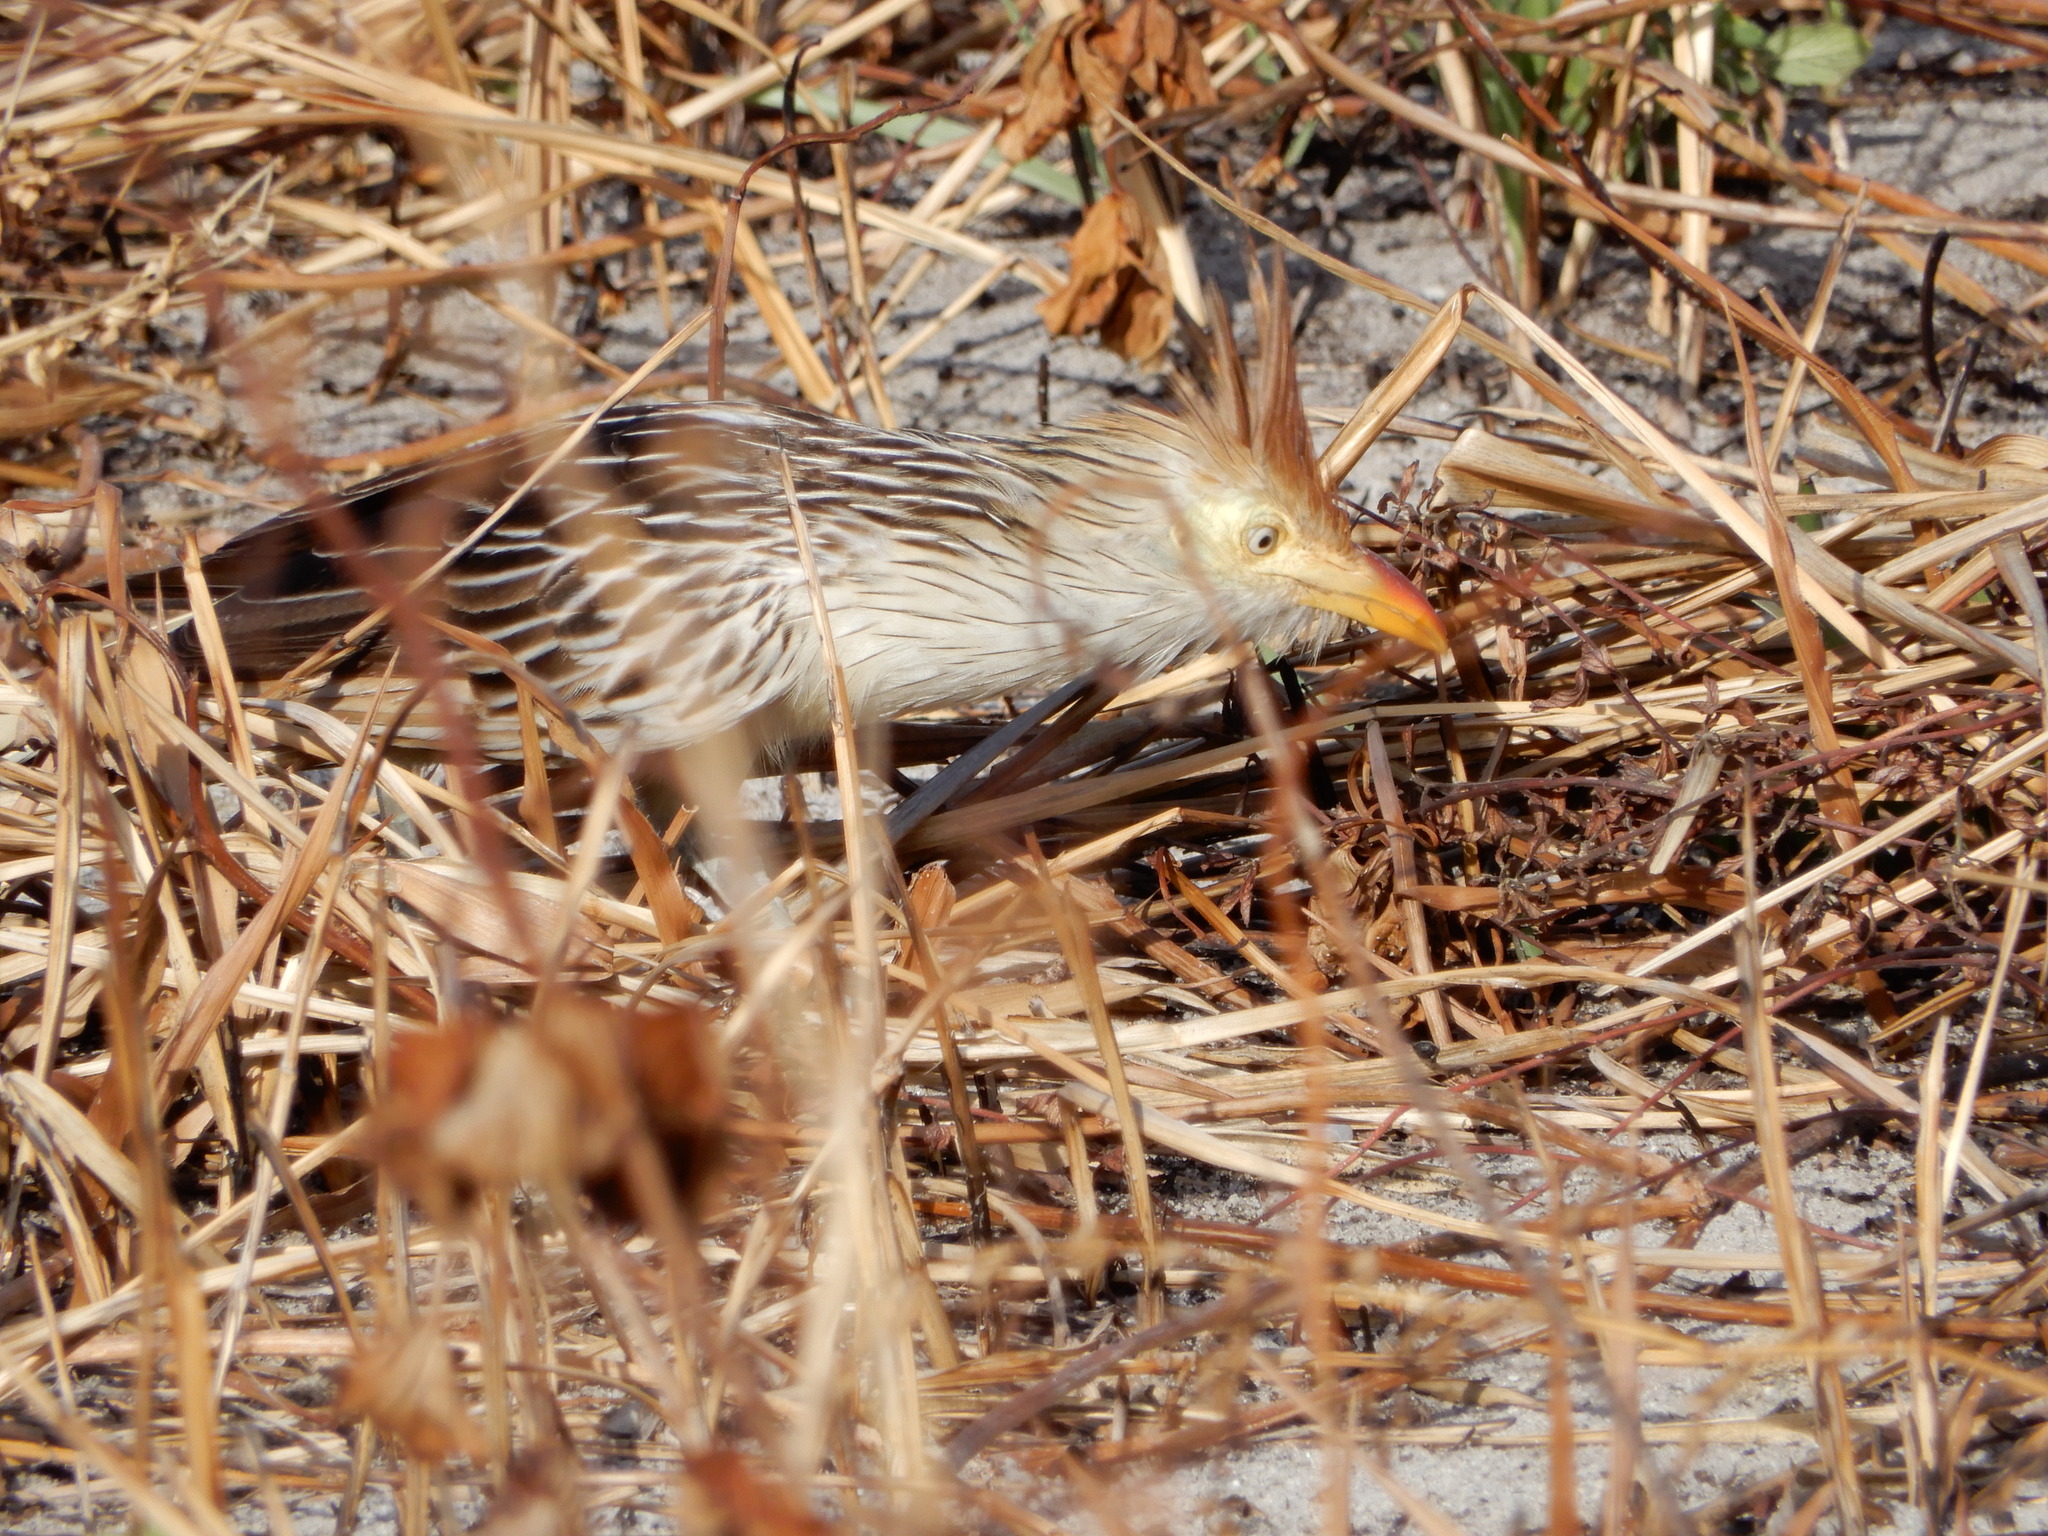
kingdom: Animalia
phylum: Chordata
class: Aves
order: Cuculiformes
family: Cuculidae
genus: Guira
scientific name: Guira guira
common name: Guira cuckoo
